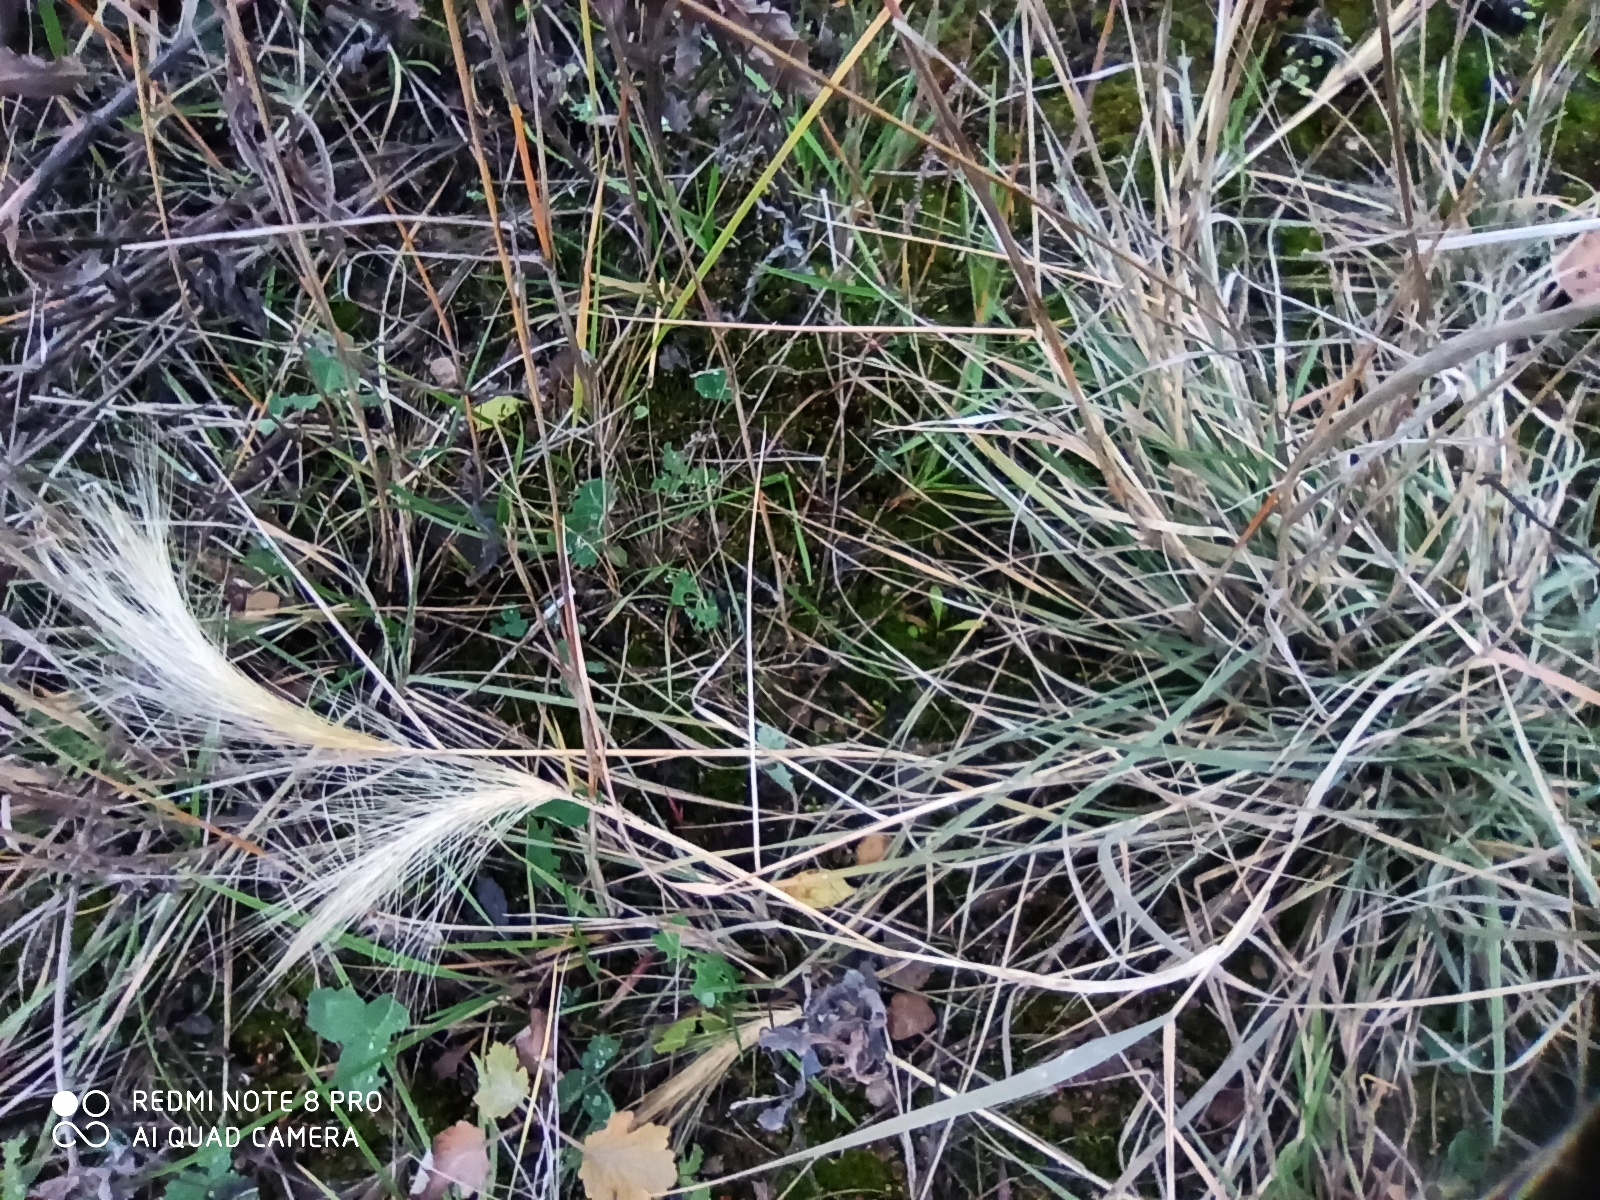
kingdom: Plantae
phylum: Tracheophyta
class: Liliopsida
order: Poales
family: Poaceae
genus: Hordeum
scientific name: Hordeum jubatum
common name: Foxtail barley
